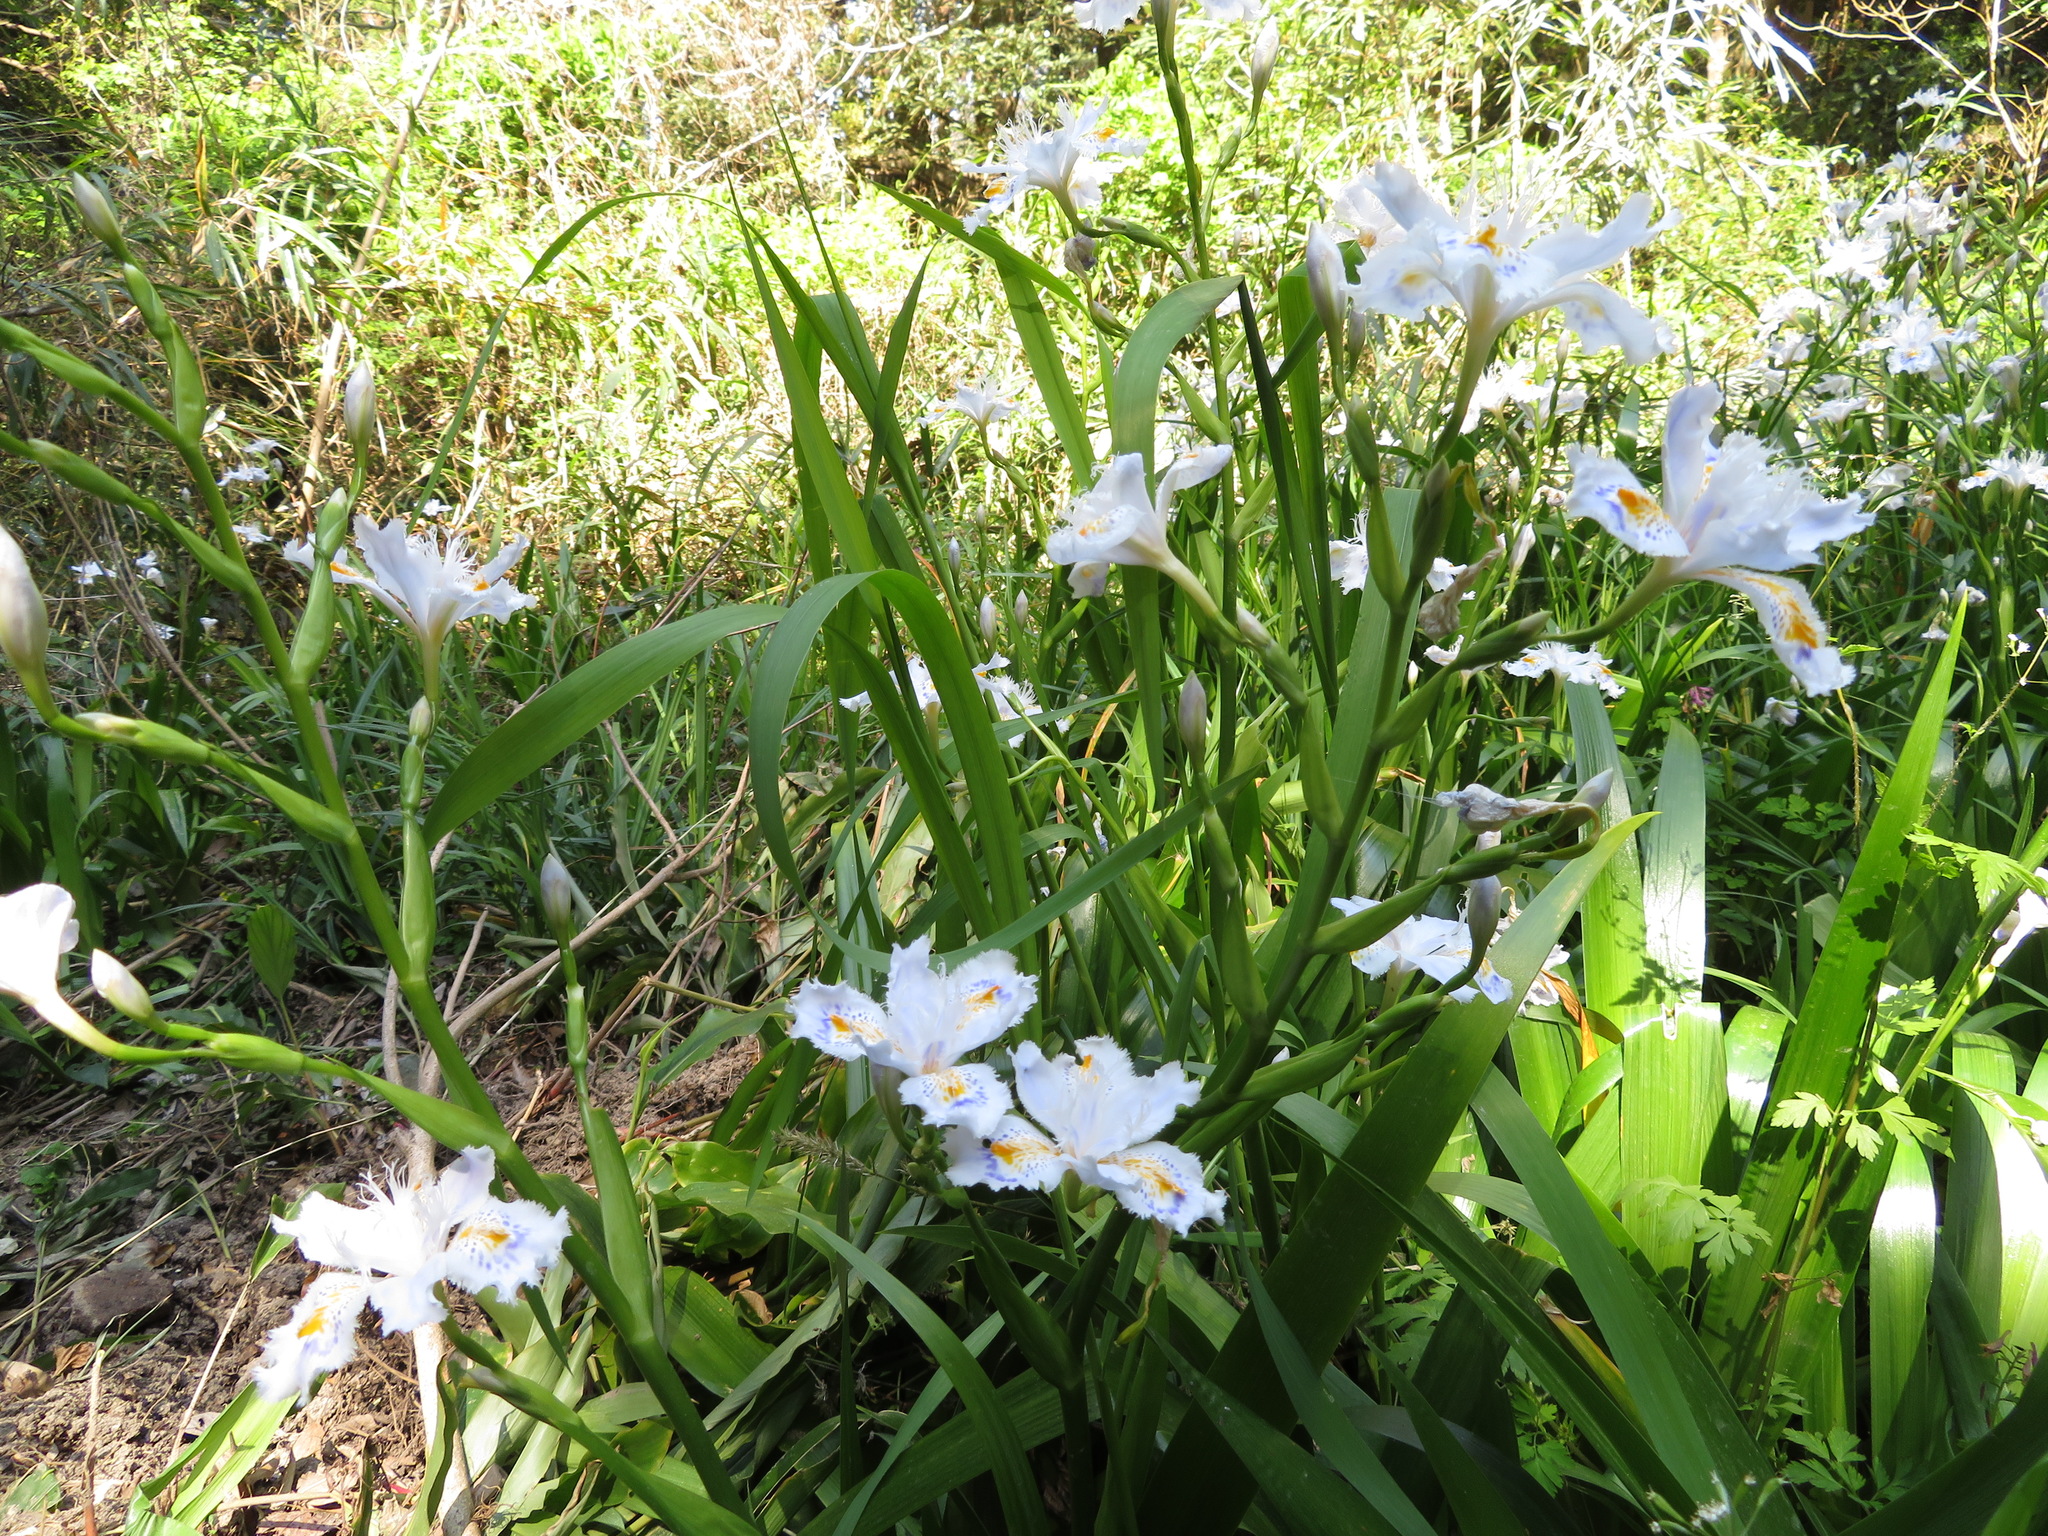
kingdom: Plantae
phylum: Tracheophyta
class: Liliopsida
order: Asparagales
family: Iridaceae
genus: Iris
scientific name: Iris japonica
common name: Butterfly-flower
